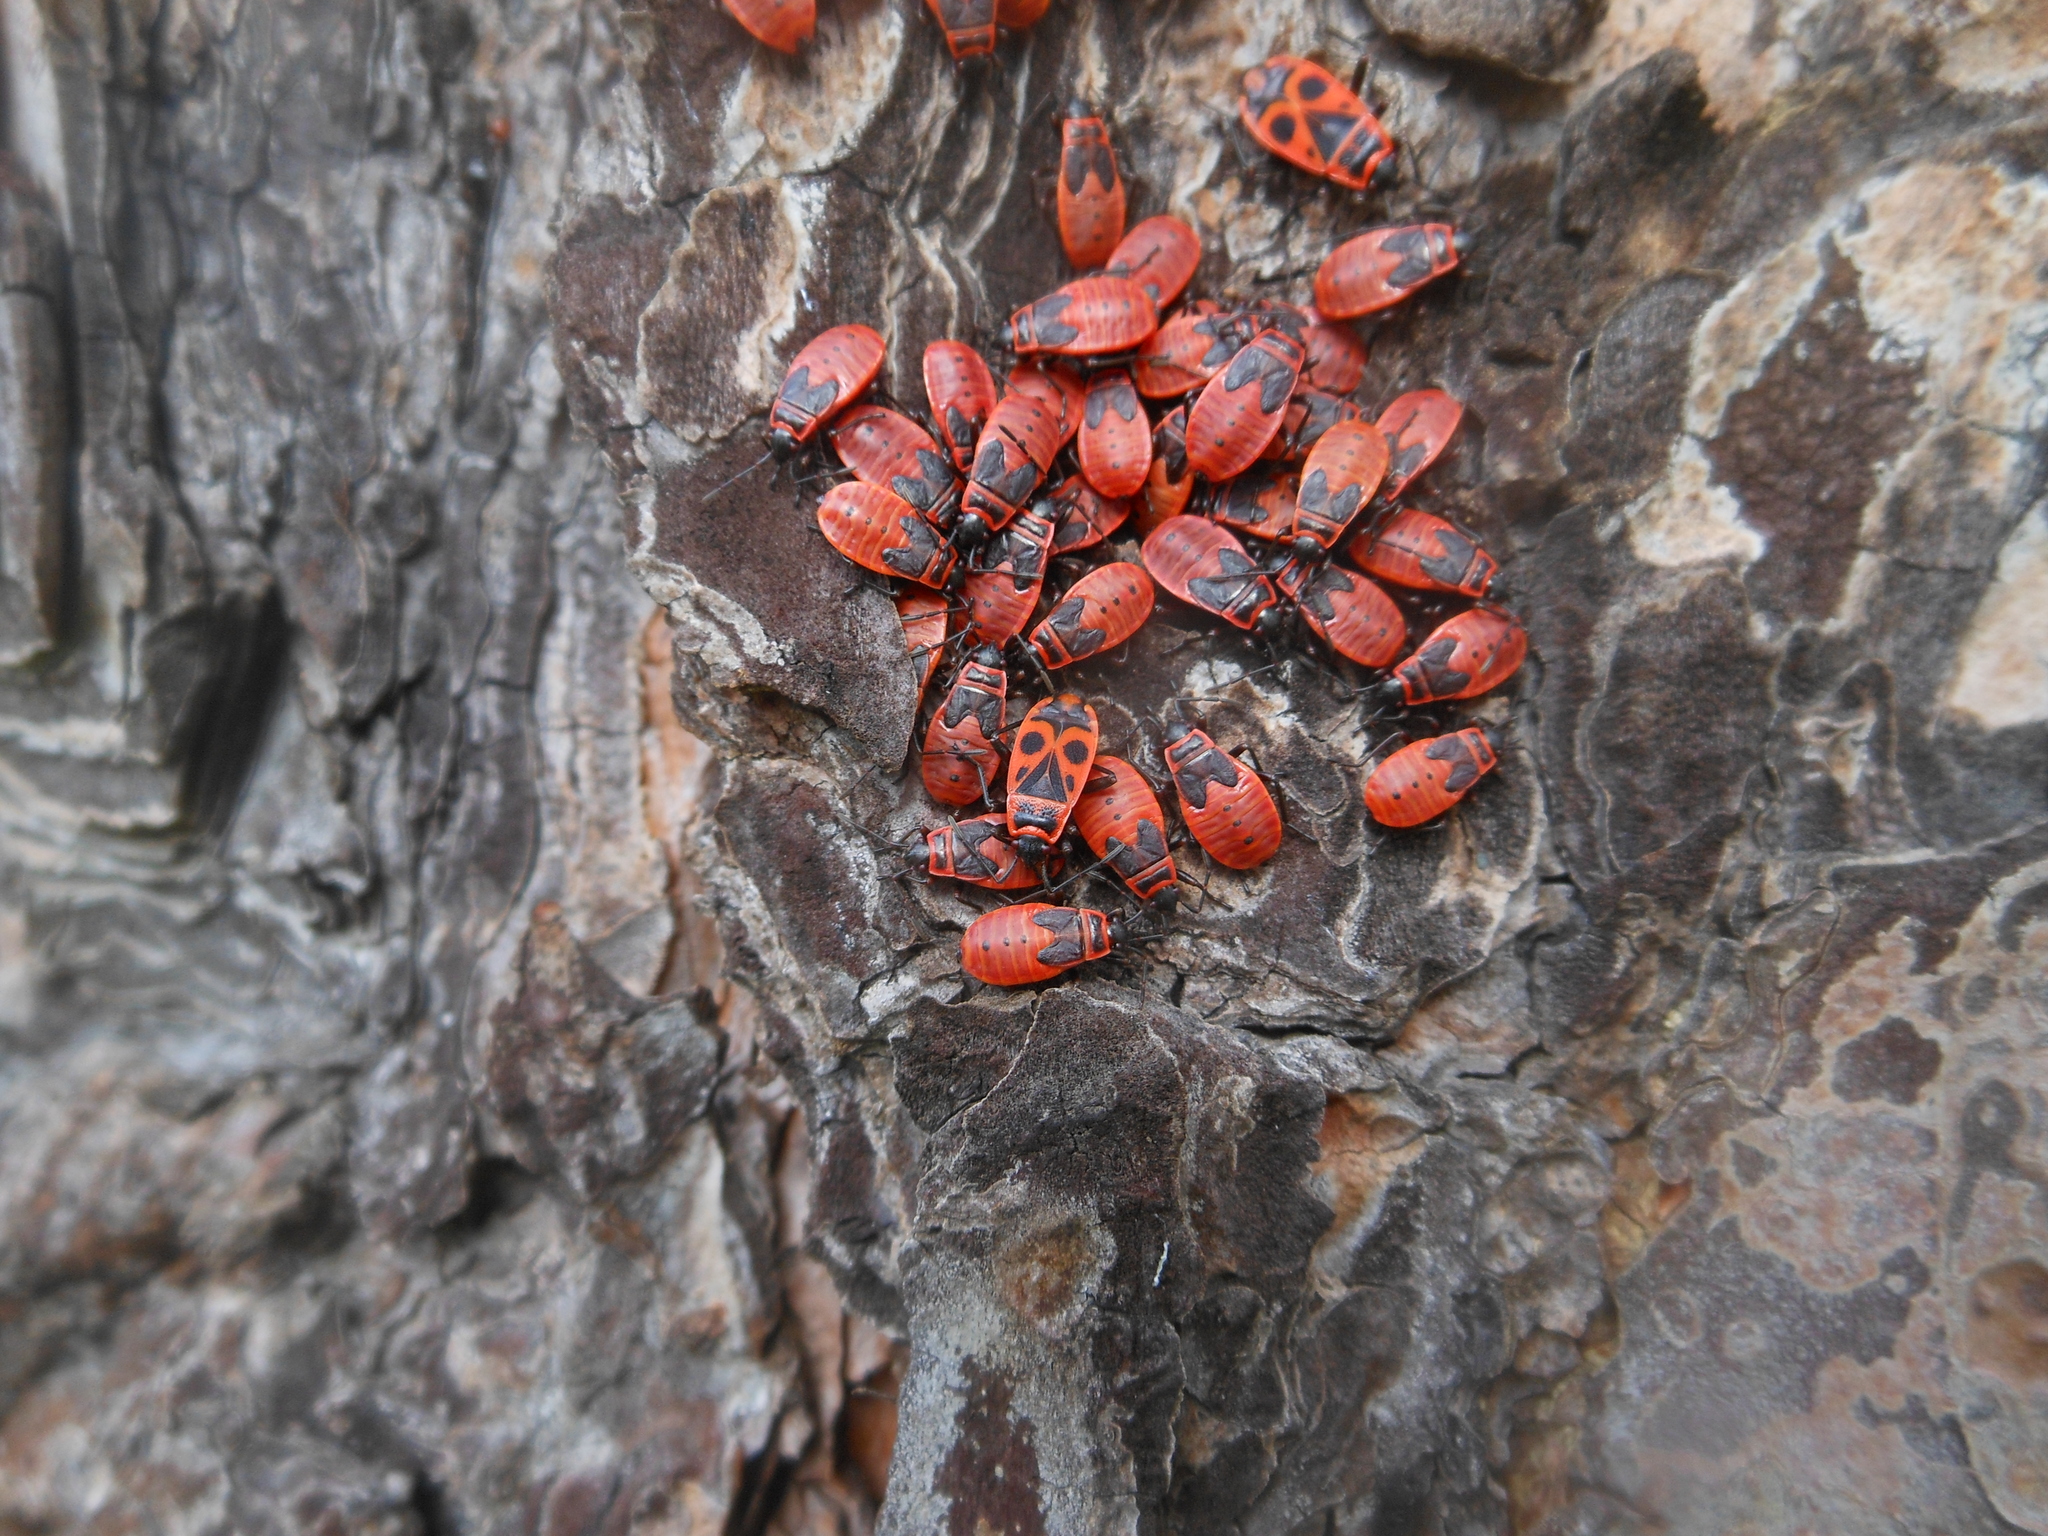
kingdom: Animalia
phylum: Arthropoda
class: Insecta
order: Hemiptera
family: Pyrrhocoridae
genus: Pyrrhocoris
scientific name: Pyrrhocoris apterus
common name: Firebug
